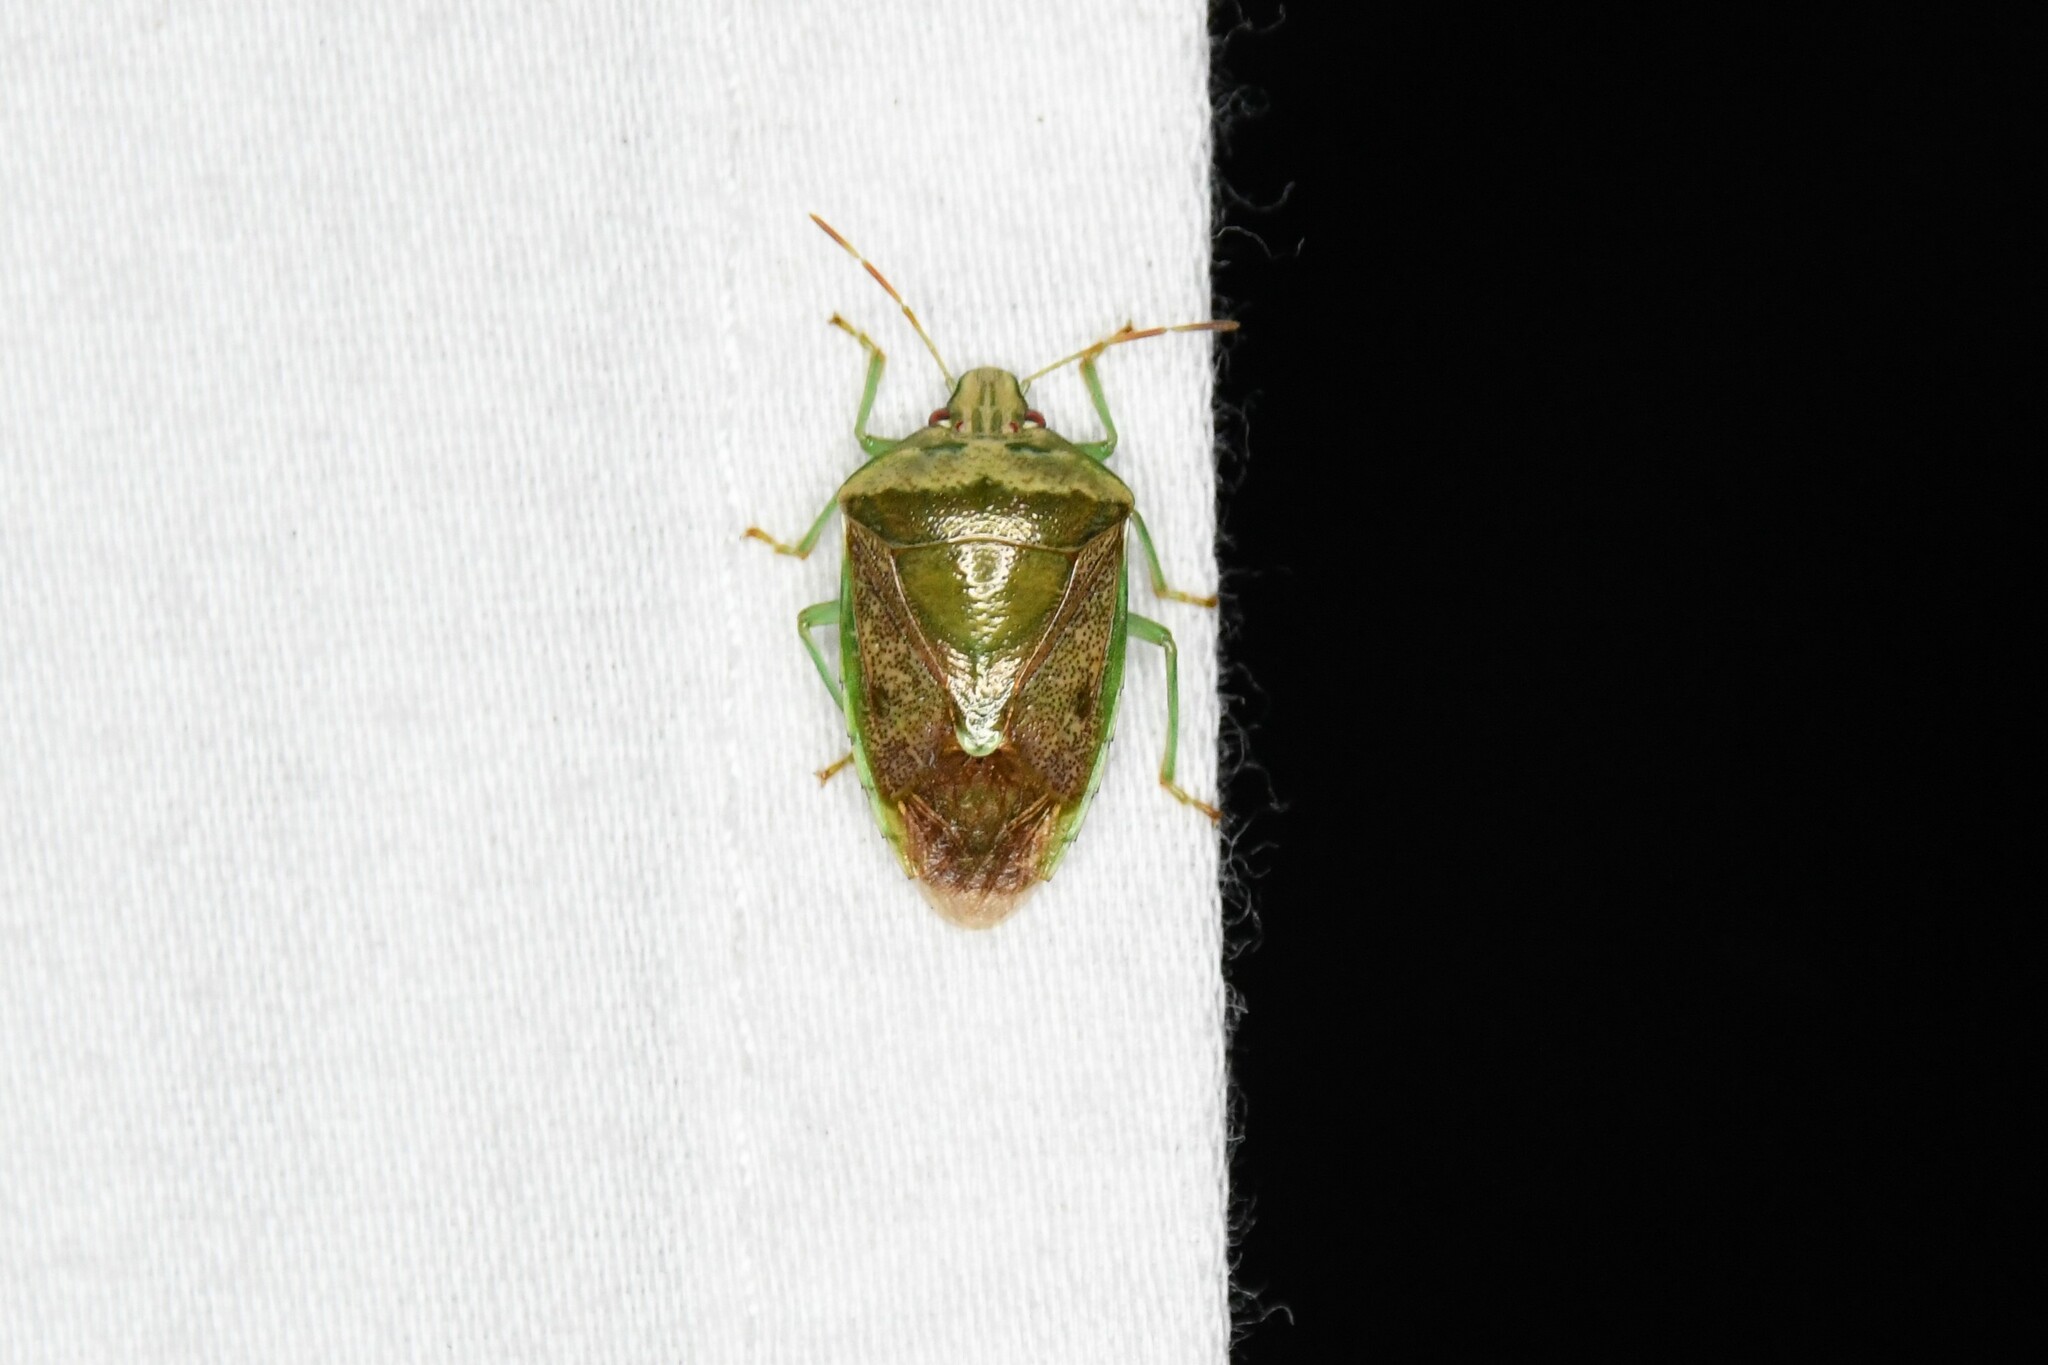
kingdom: Animalia
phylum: Arthropoda
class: Insecta
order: Hemiptera
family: Pentatomidae
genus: Banasa
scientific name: Banasa calva
